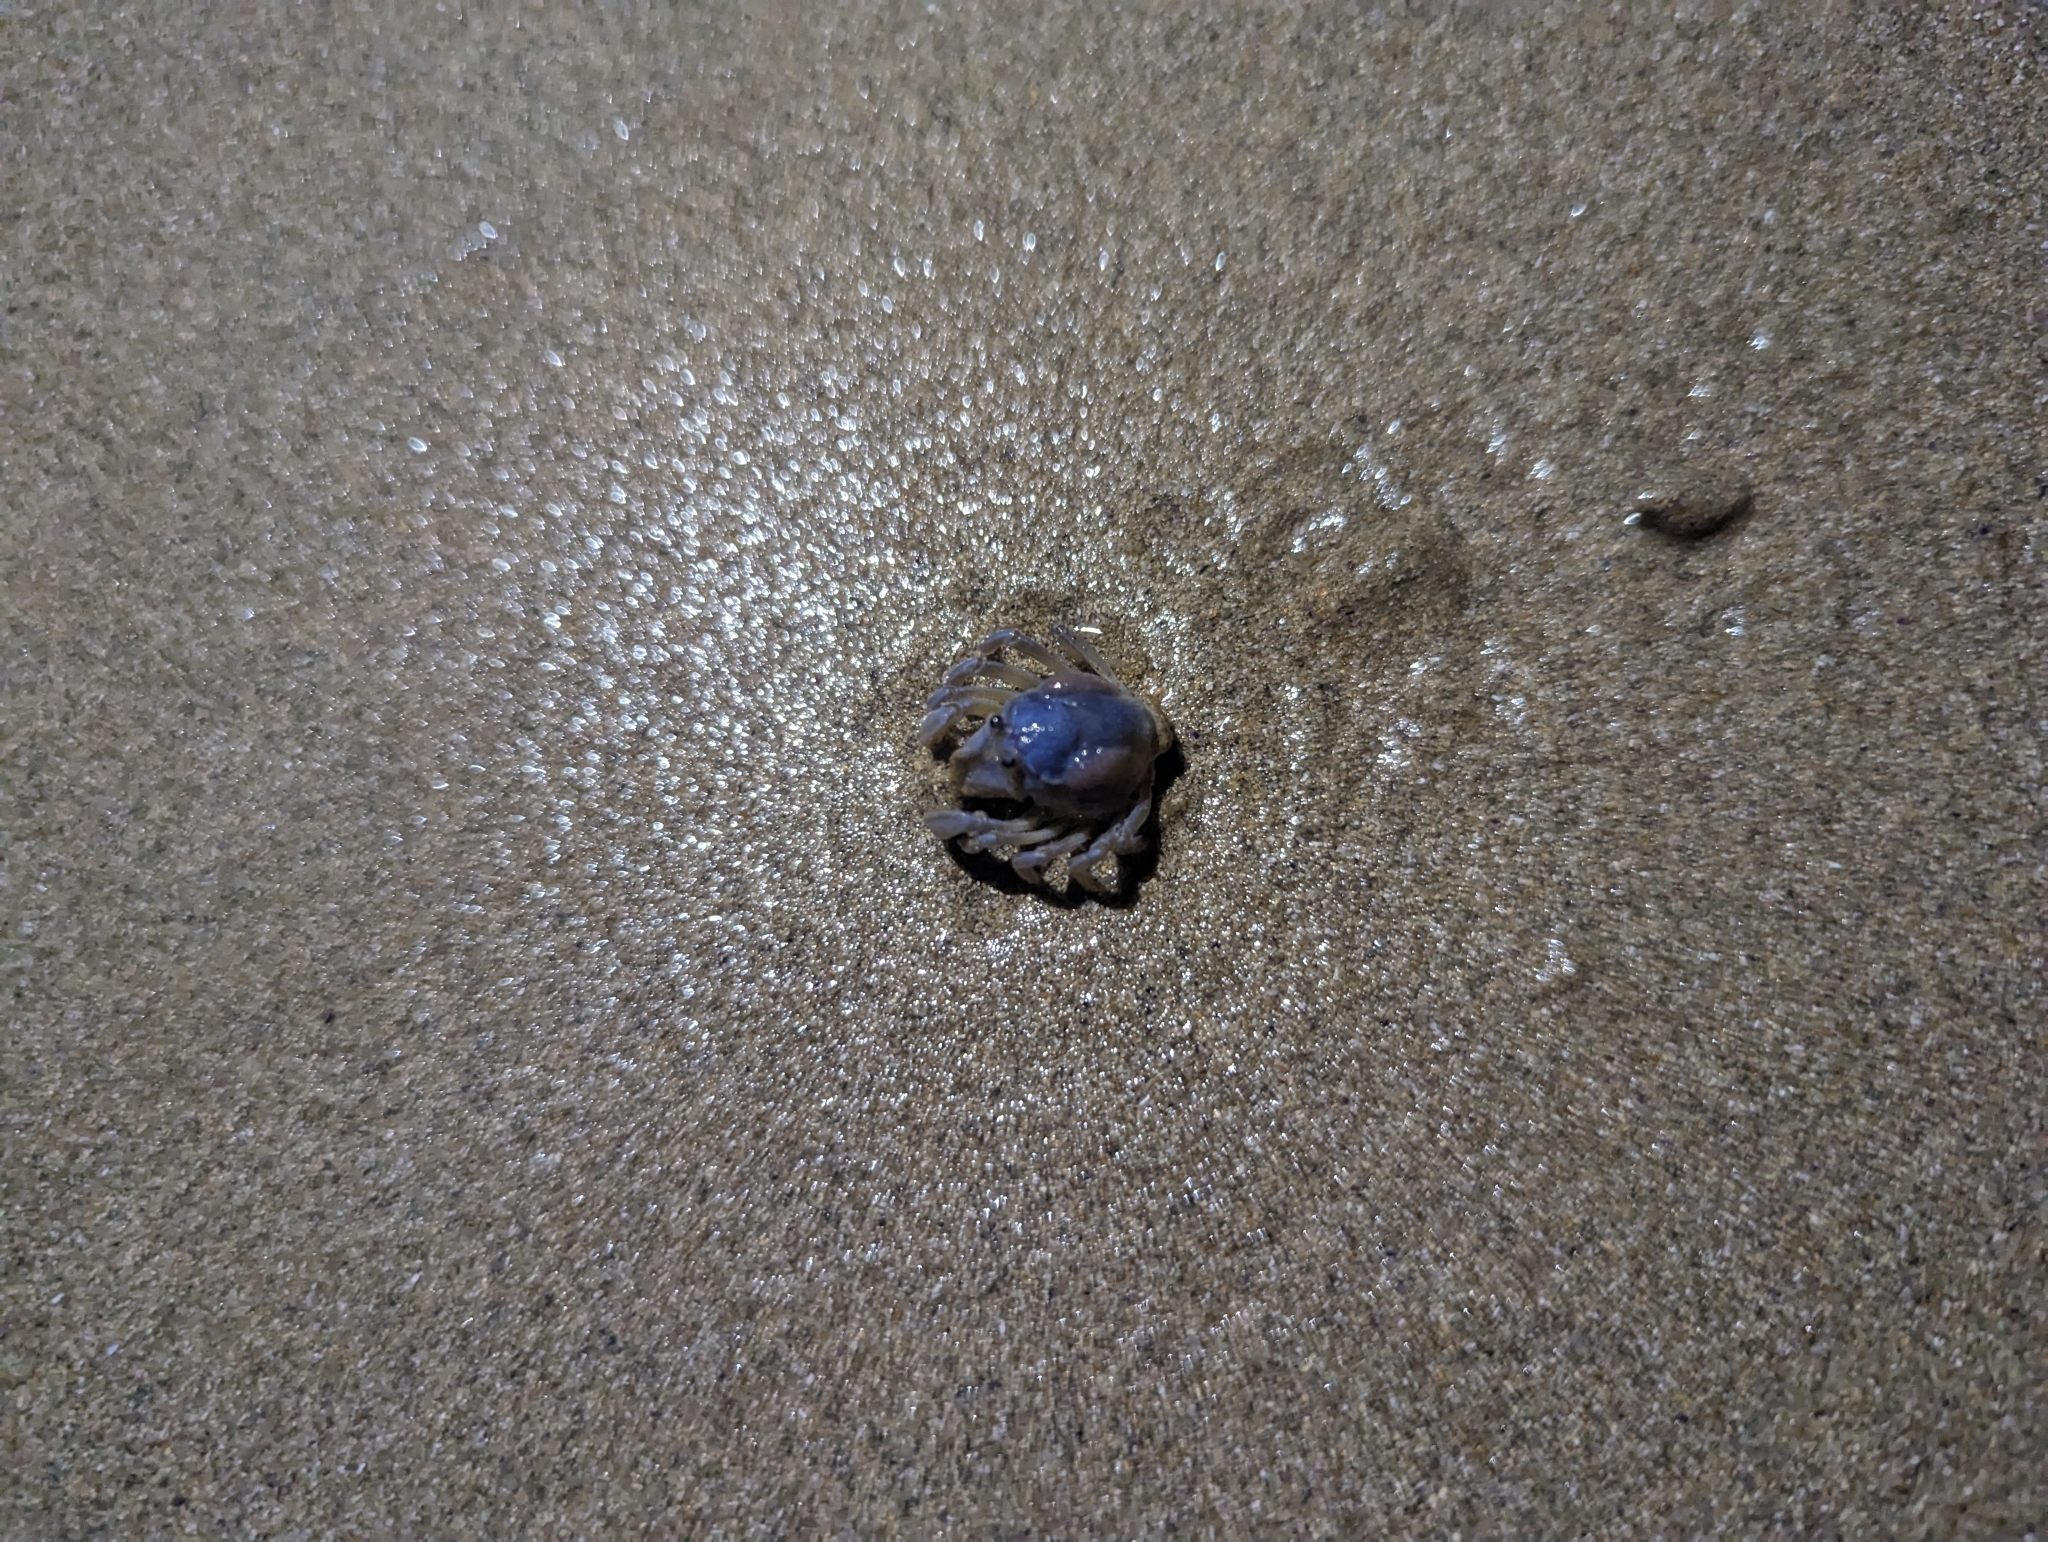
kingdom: Animalia
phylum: Arthropoda
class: Malacostraca
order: Decapoda
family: Mictyridae
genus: Mictyris
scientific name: Mictyris platycheles
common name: Dark blue soldier crab
